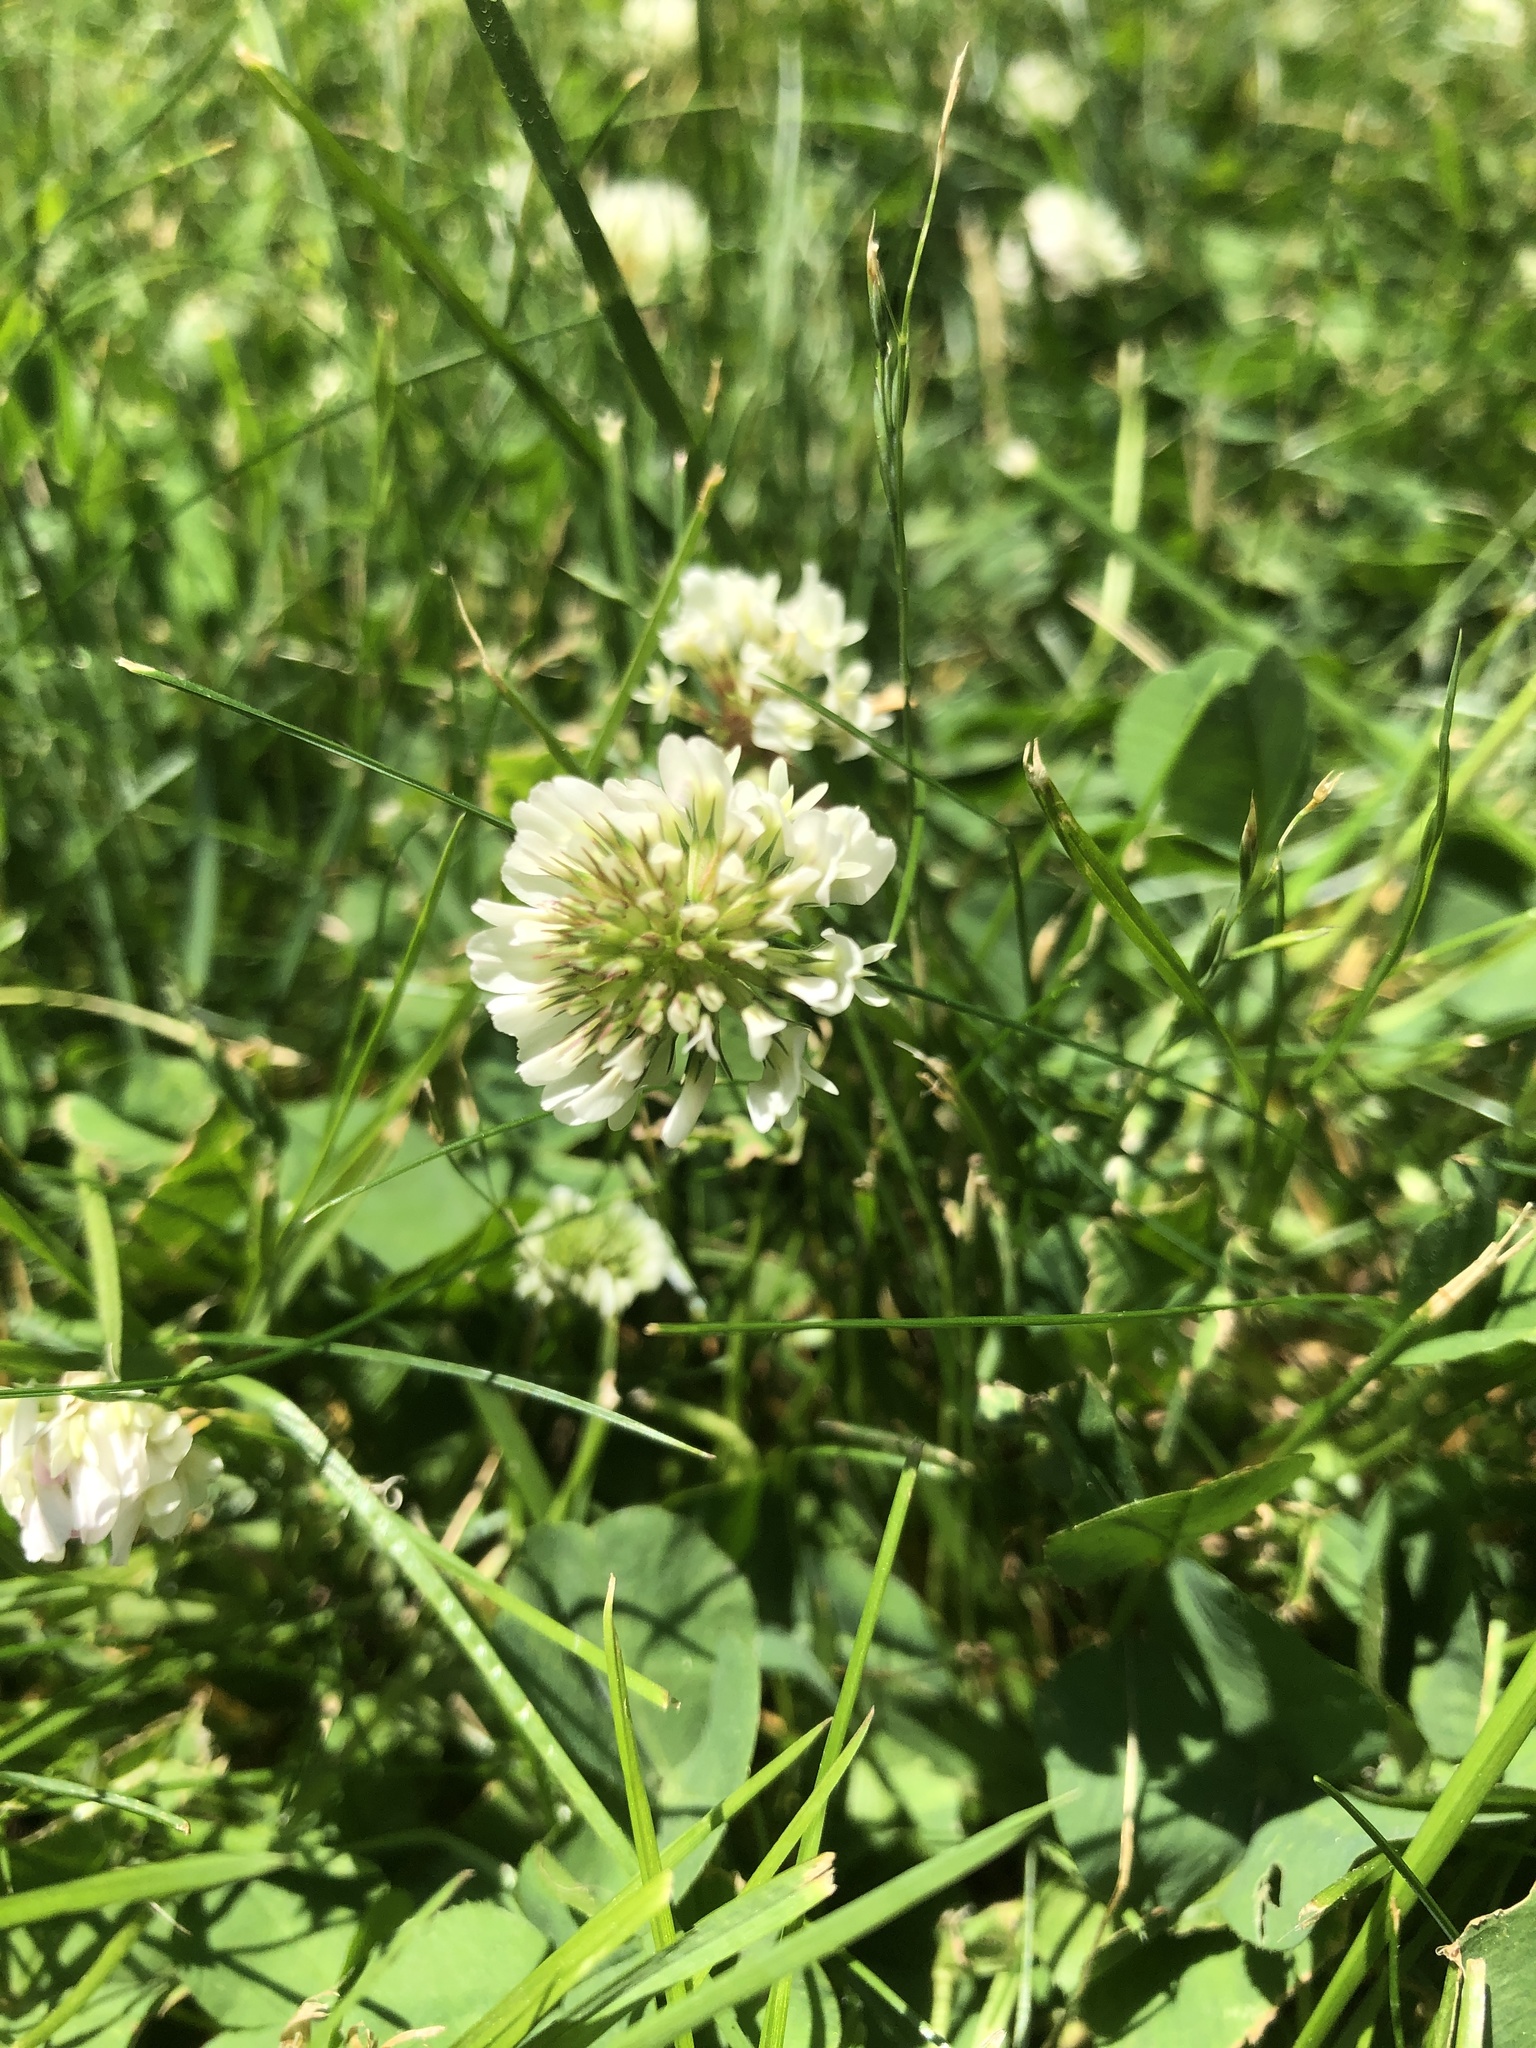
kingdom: Plantae
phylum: Tracheophyta
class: Magnoliopsida
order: Fabales
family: Fabaceae
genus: Trifolium
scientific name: Trifolium repens
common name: White clover
